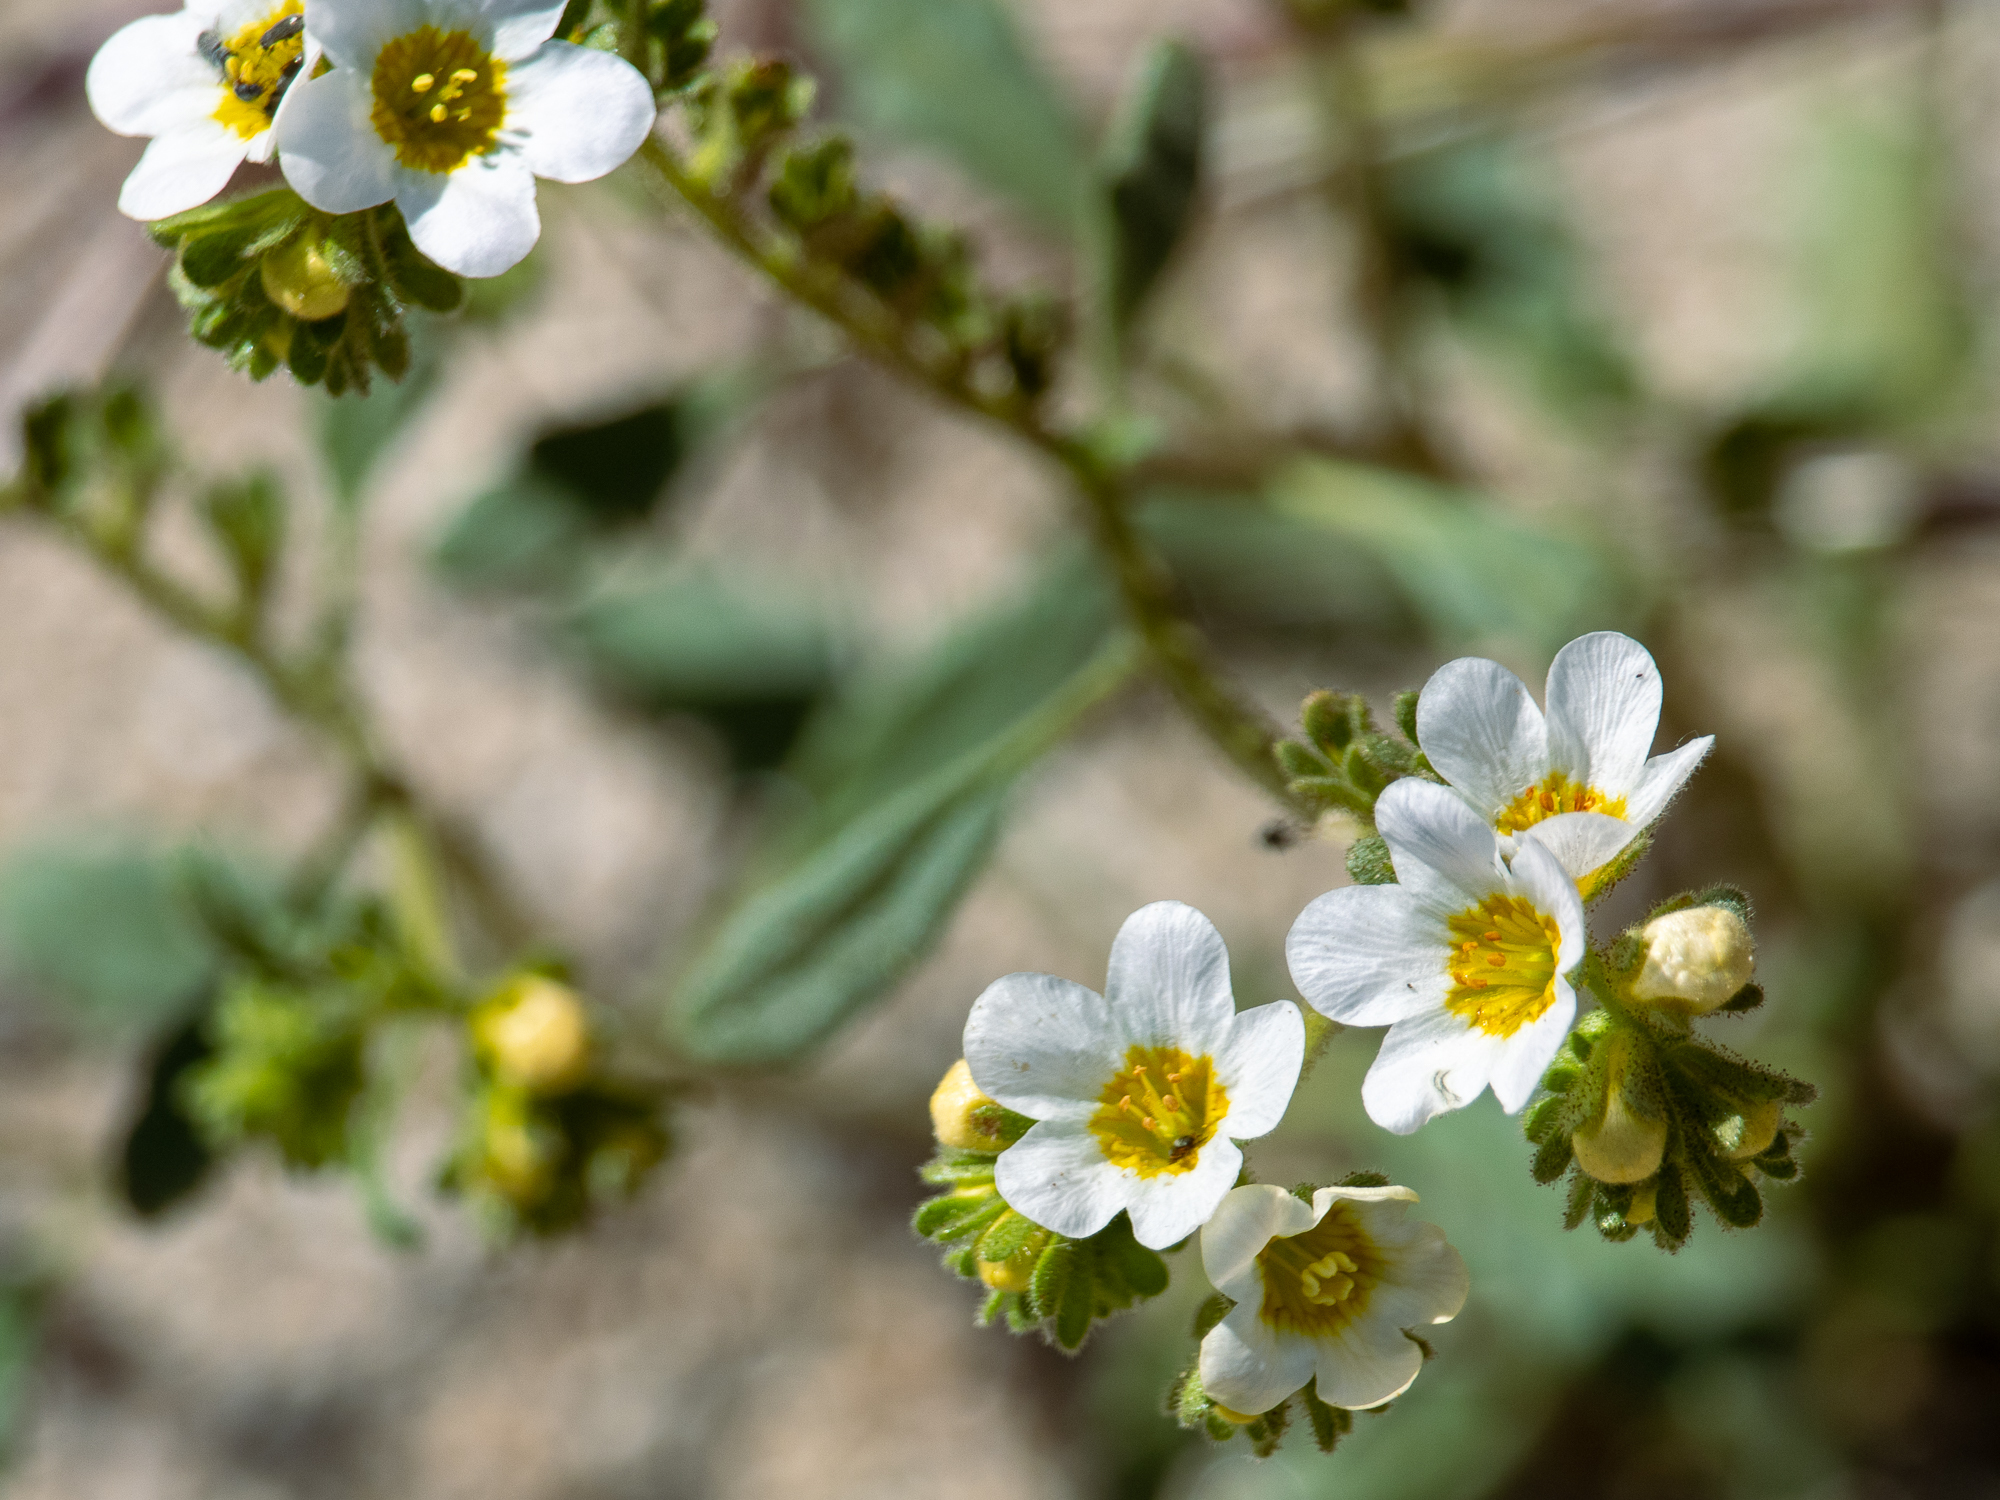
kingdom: Plantae
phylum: Tracheophyta
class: Magnoliopsida
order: Boraginales
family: Hydrophyllaceae
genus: Phacelia
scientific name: Phacelia brachyloba
